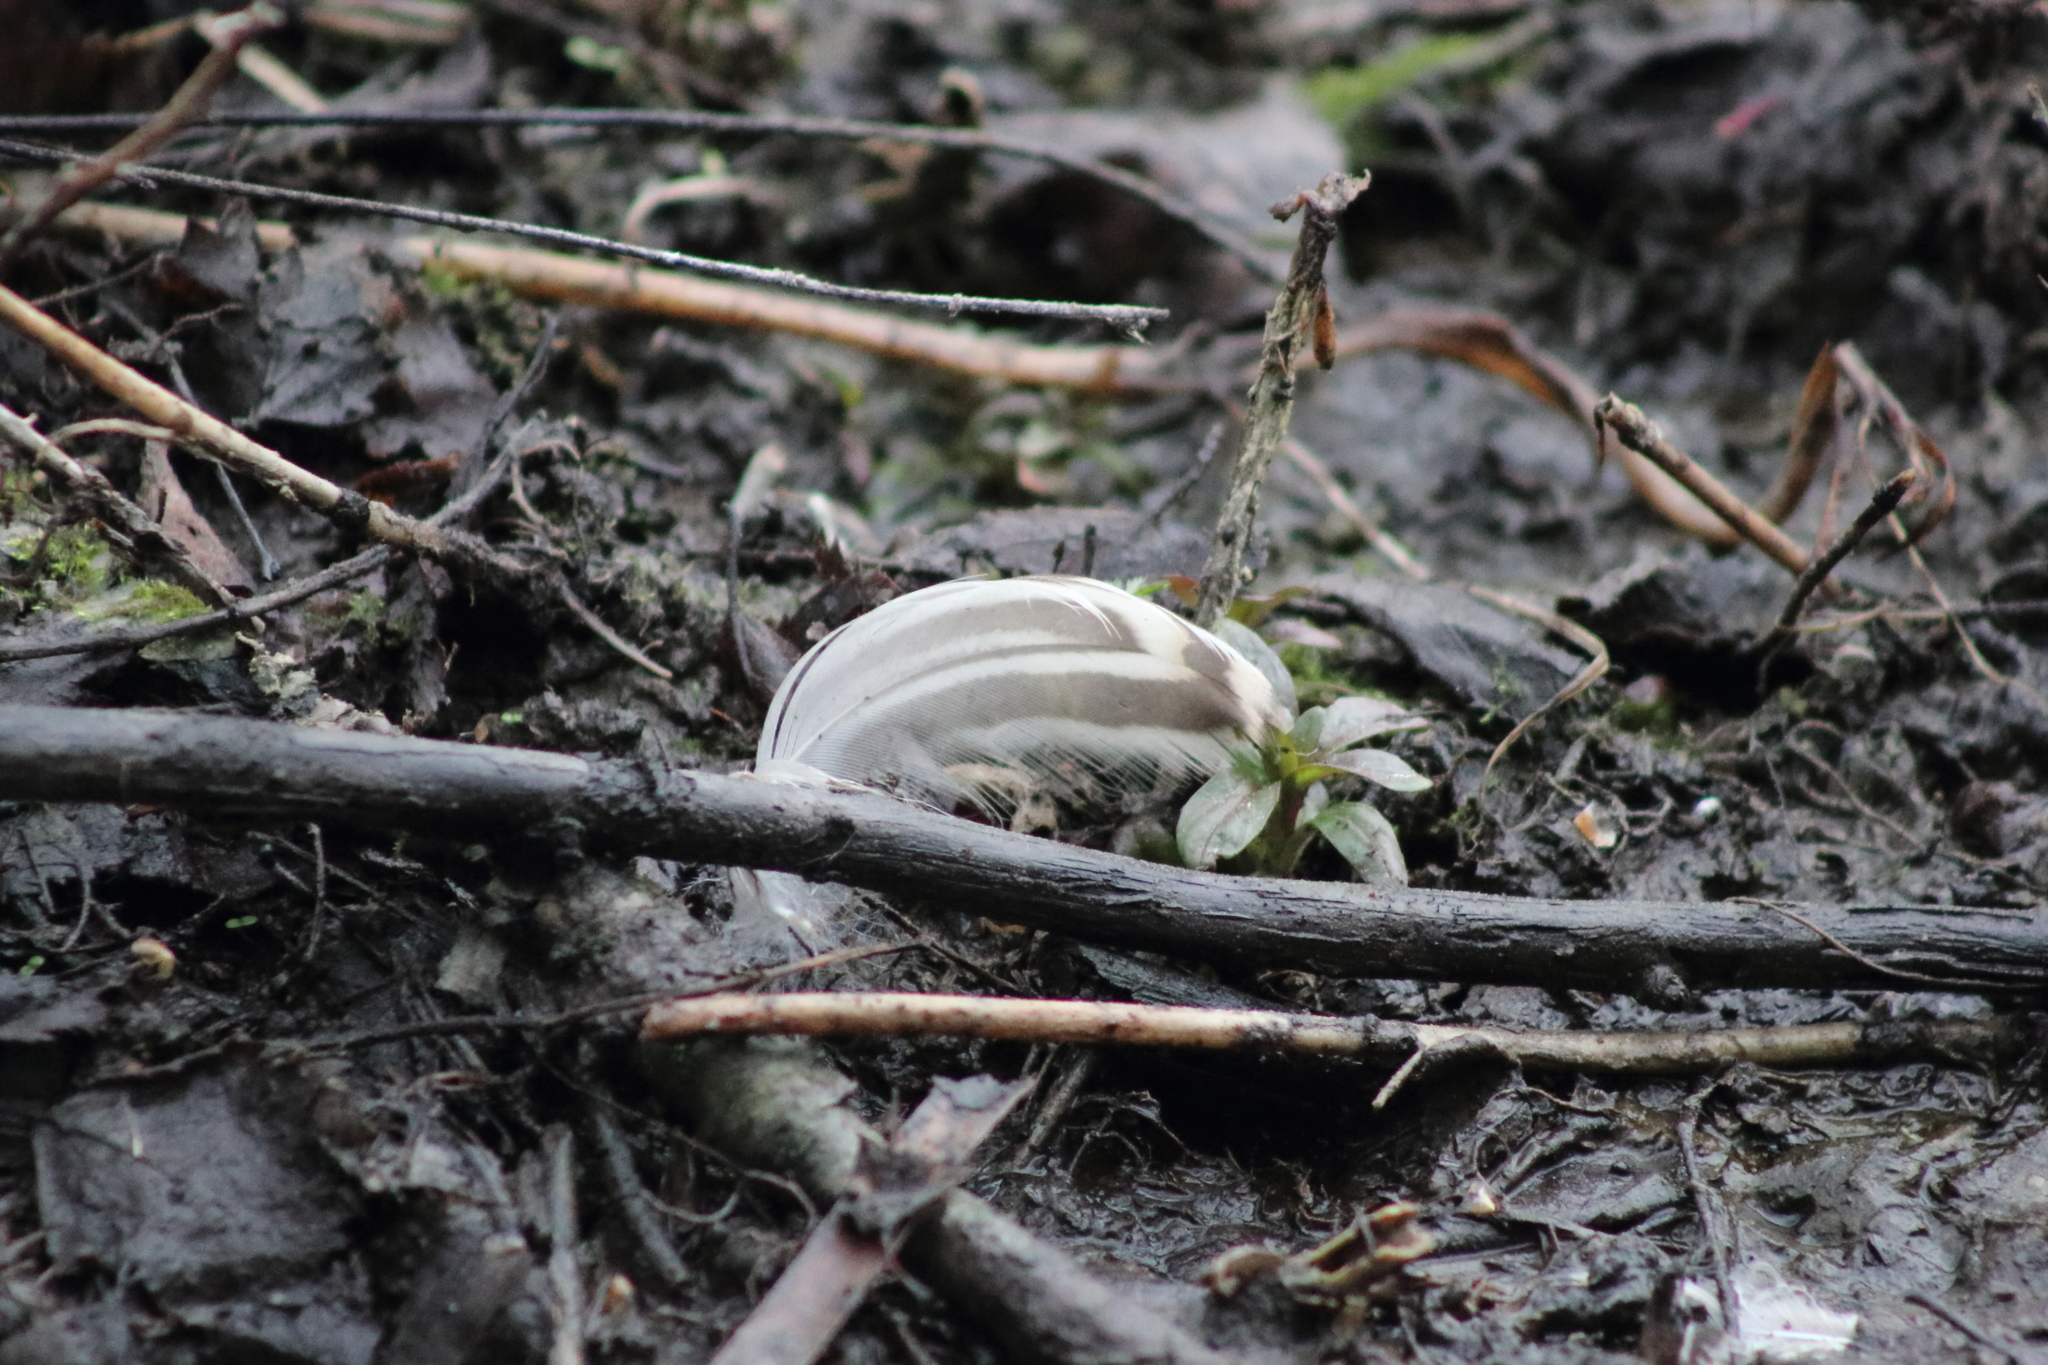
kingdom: Animalia
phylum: Chordata
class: Aves
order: Anseriformes
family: Anatidae
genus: Anas
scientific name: Anas platyrhynchos
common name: Mallard
